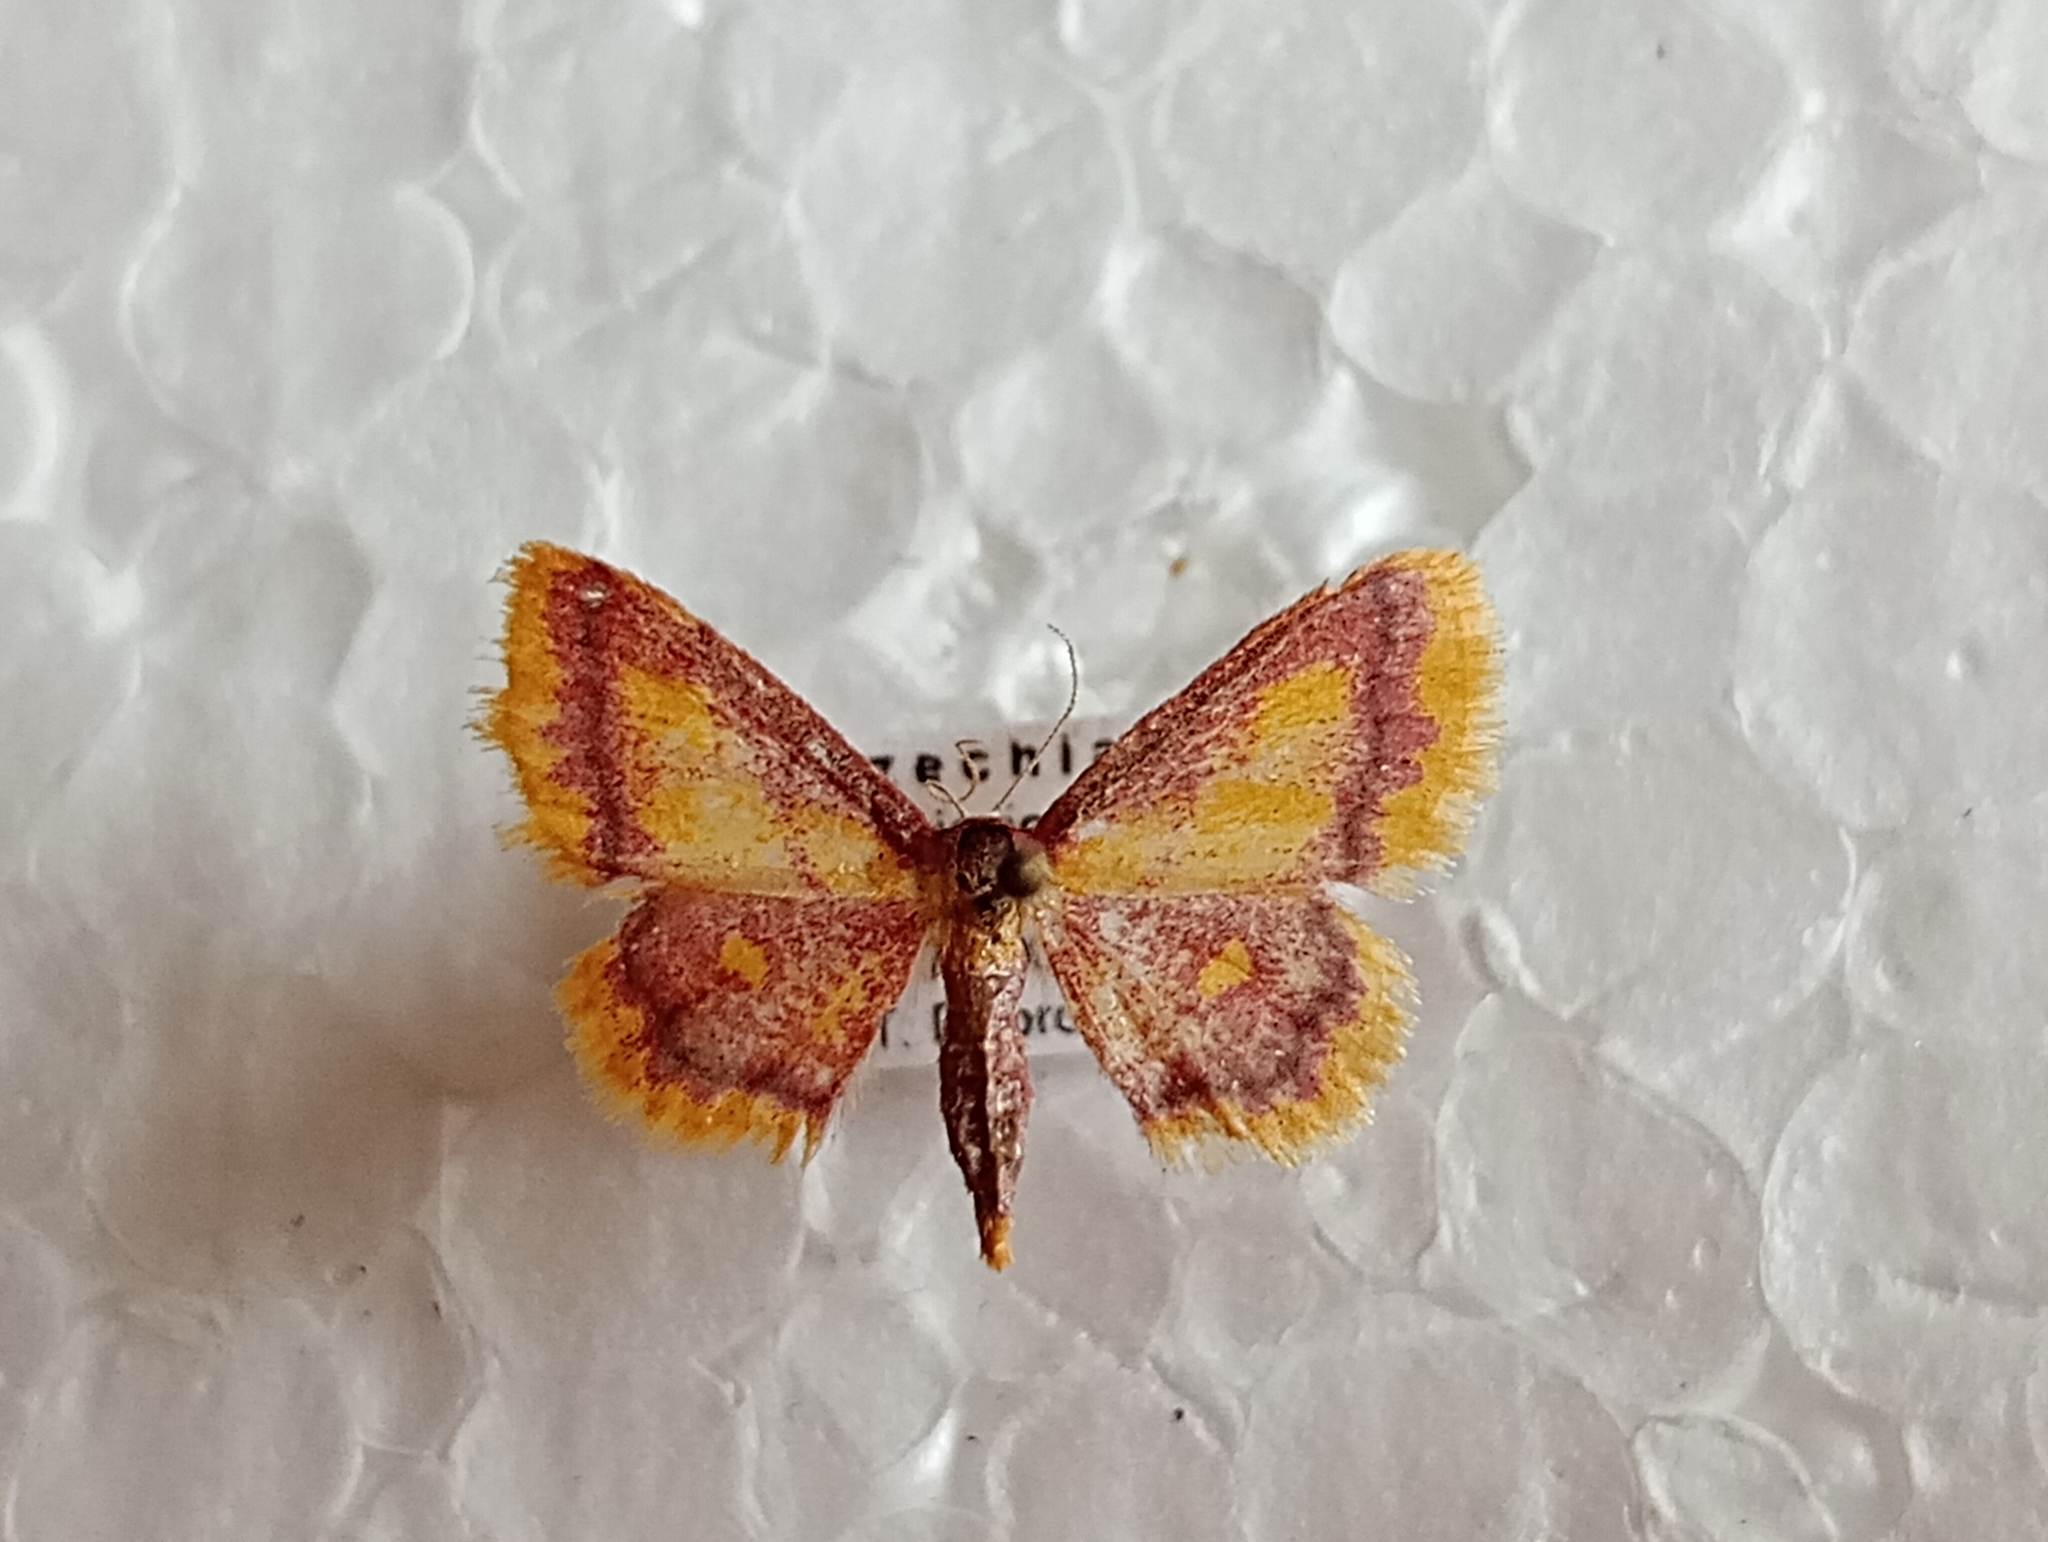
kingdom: Animalia
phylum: Arthropoda
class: Insecta
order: Lepidoptera
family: Geometridae
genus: Idaea
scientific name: Idaea muricata
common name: Purple-bordered gold
